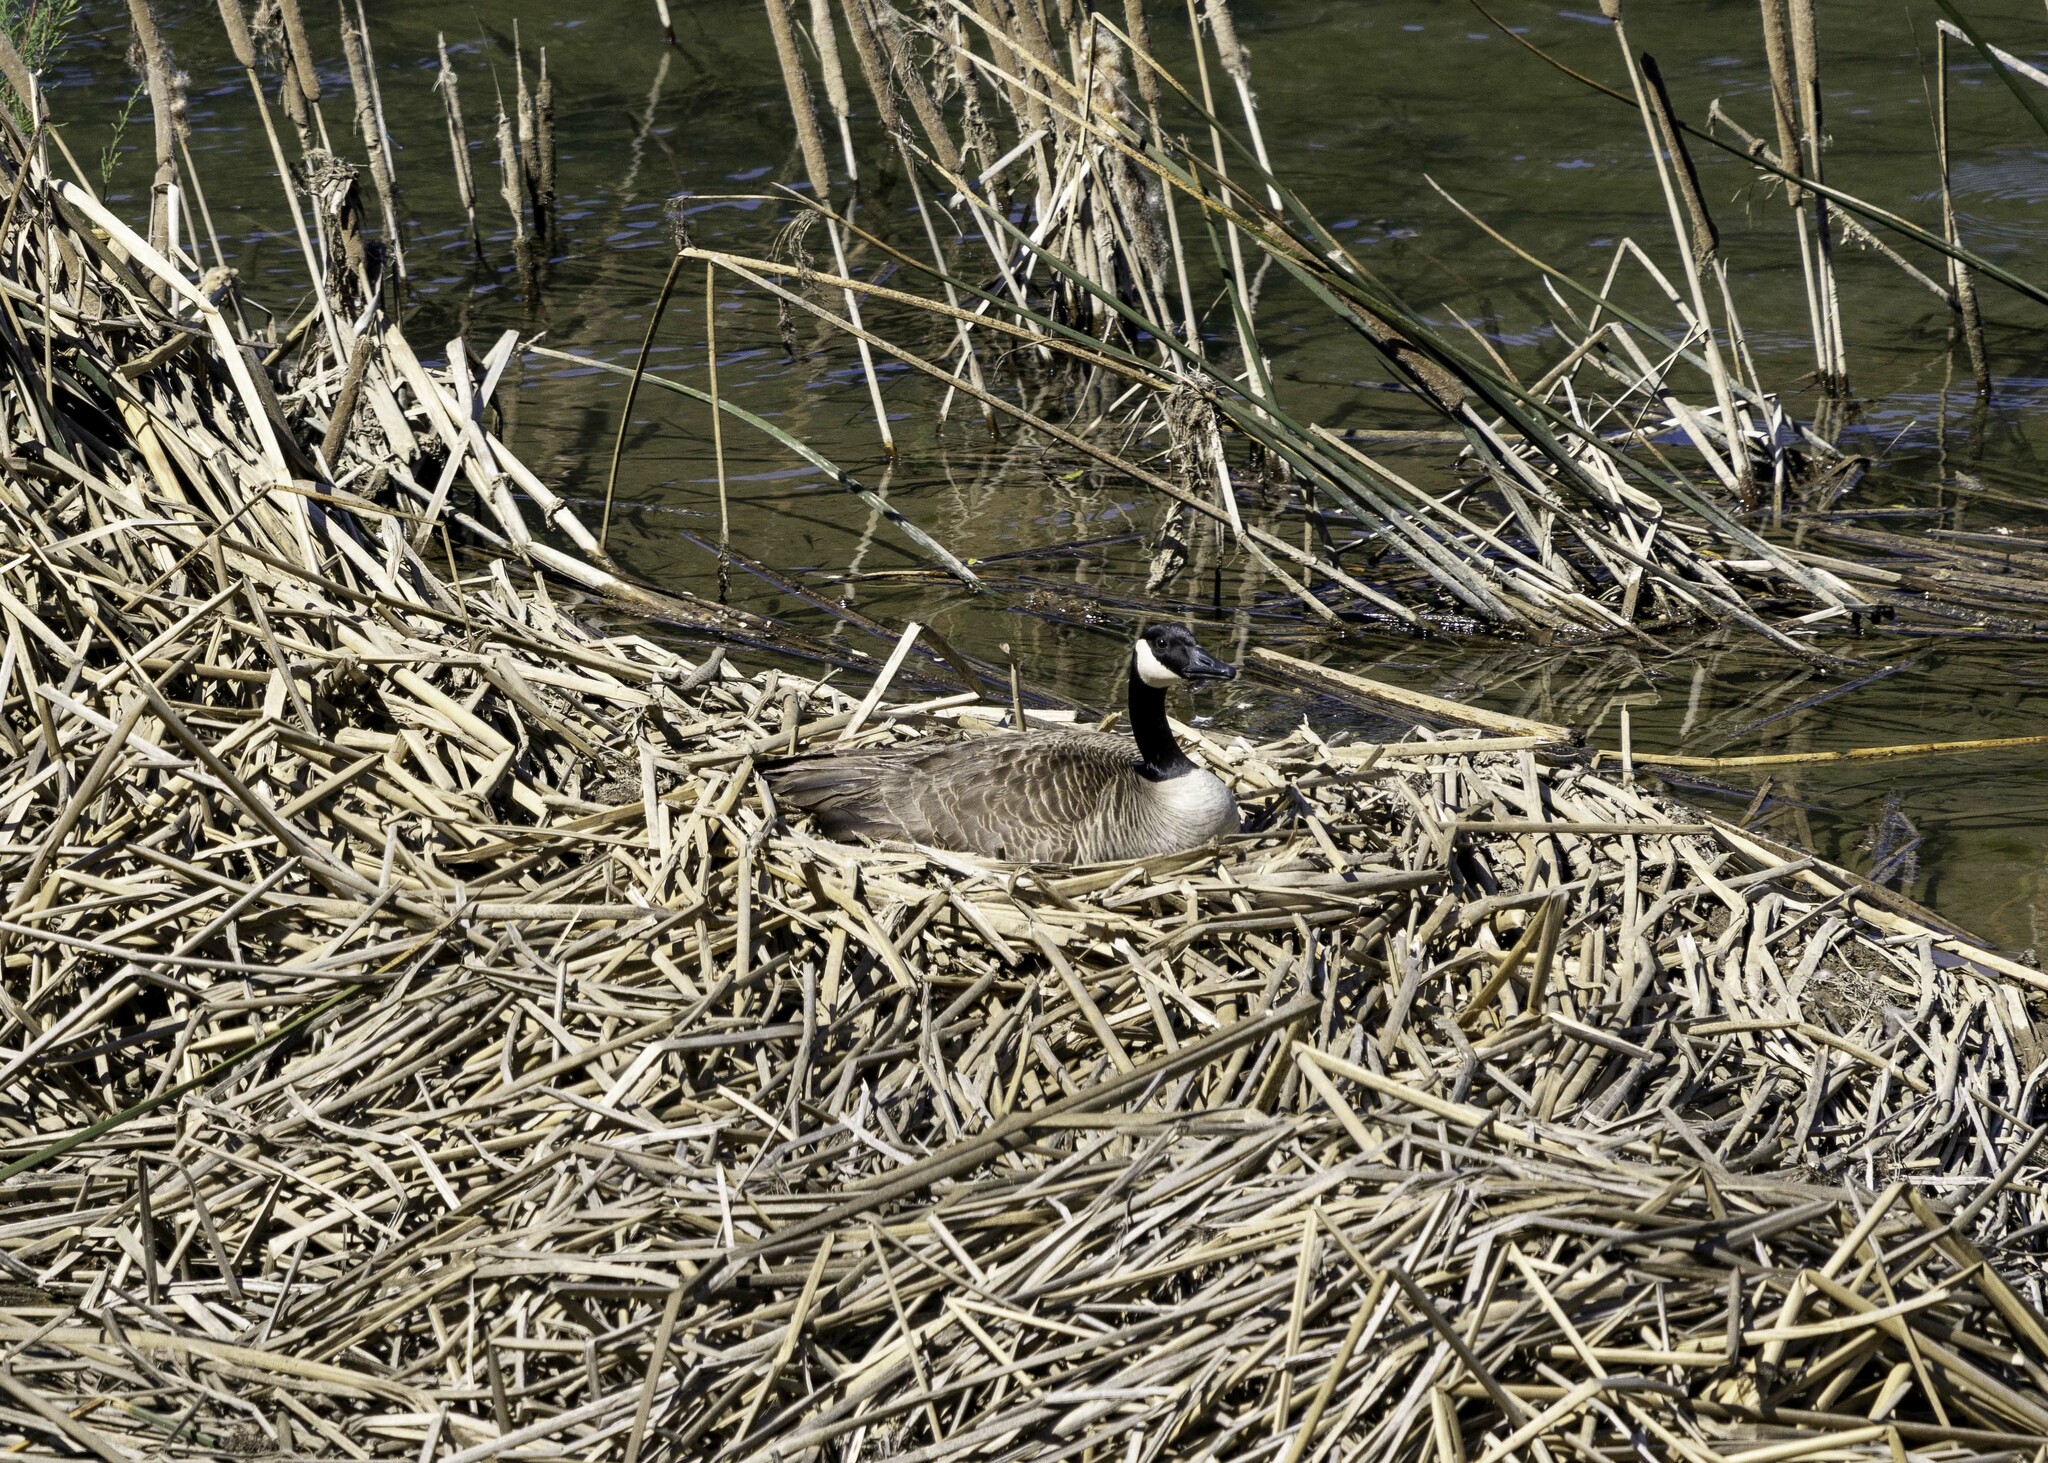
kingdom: Animalia
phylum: Chordata
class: Aves
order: Anseriformes
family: Anatidae
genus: Branta
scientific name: Branta canadensis
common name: Canada goose
